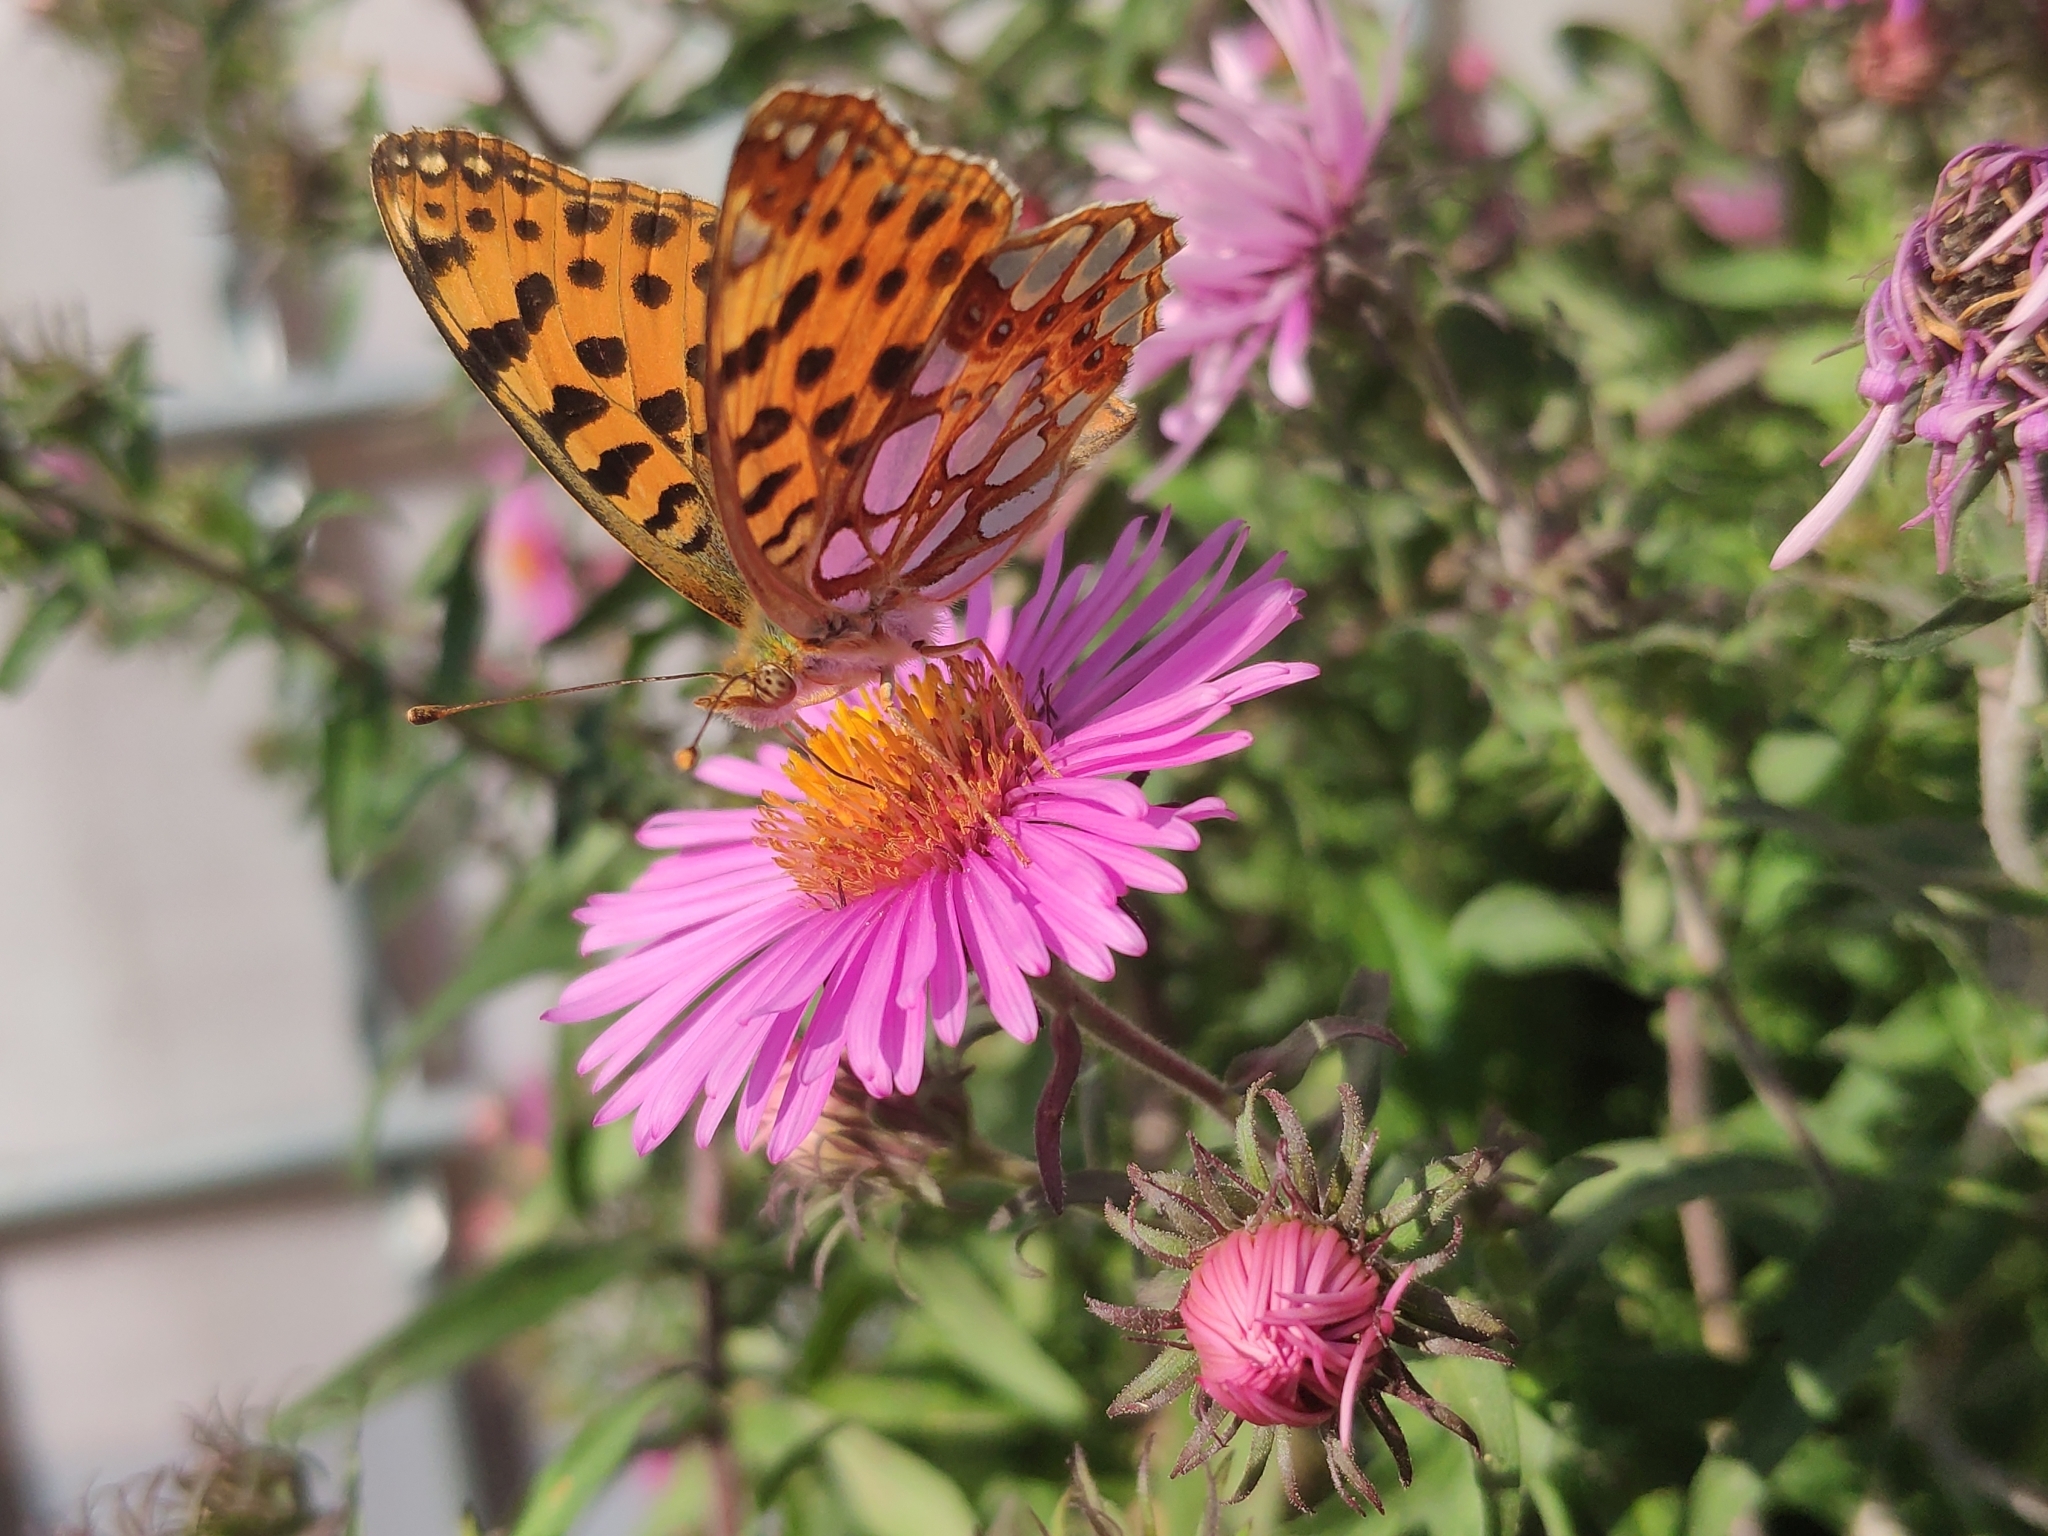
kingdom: Animalia
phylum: Arthropoda
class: Insecta
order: Lepidoptera
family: Nymphalidae
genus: Issoria
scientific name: Issoria lathonia
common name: Queen of spain fritillary
